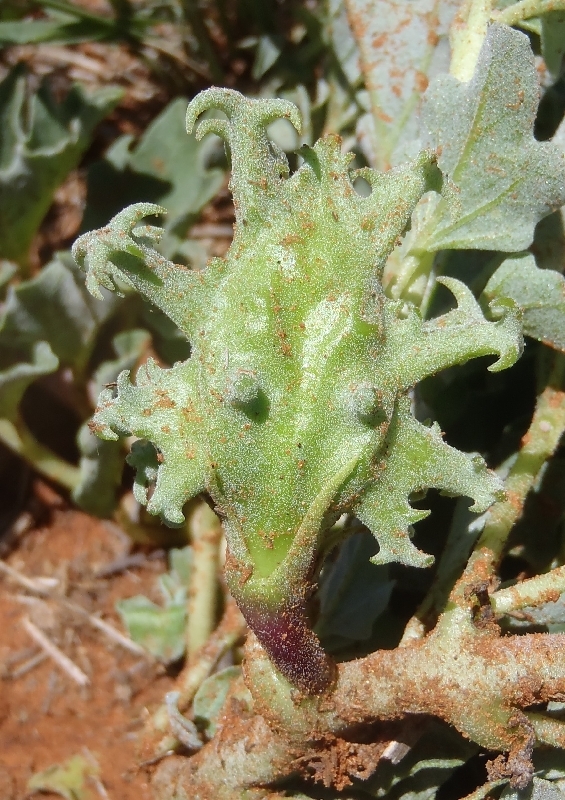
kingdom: Plantae
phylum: Tracheophyta
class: Magnoliopsida
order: Lamiales
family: Pedaliaceae
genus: Harpagophytum
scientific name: Harpagophytum procumbens
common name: Grappleplant
